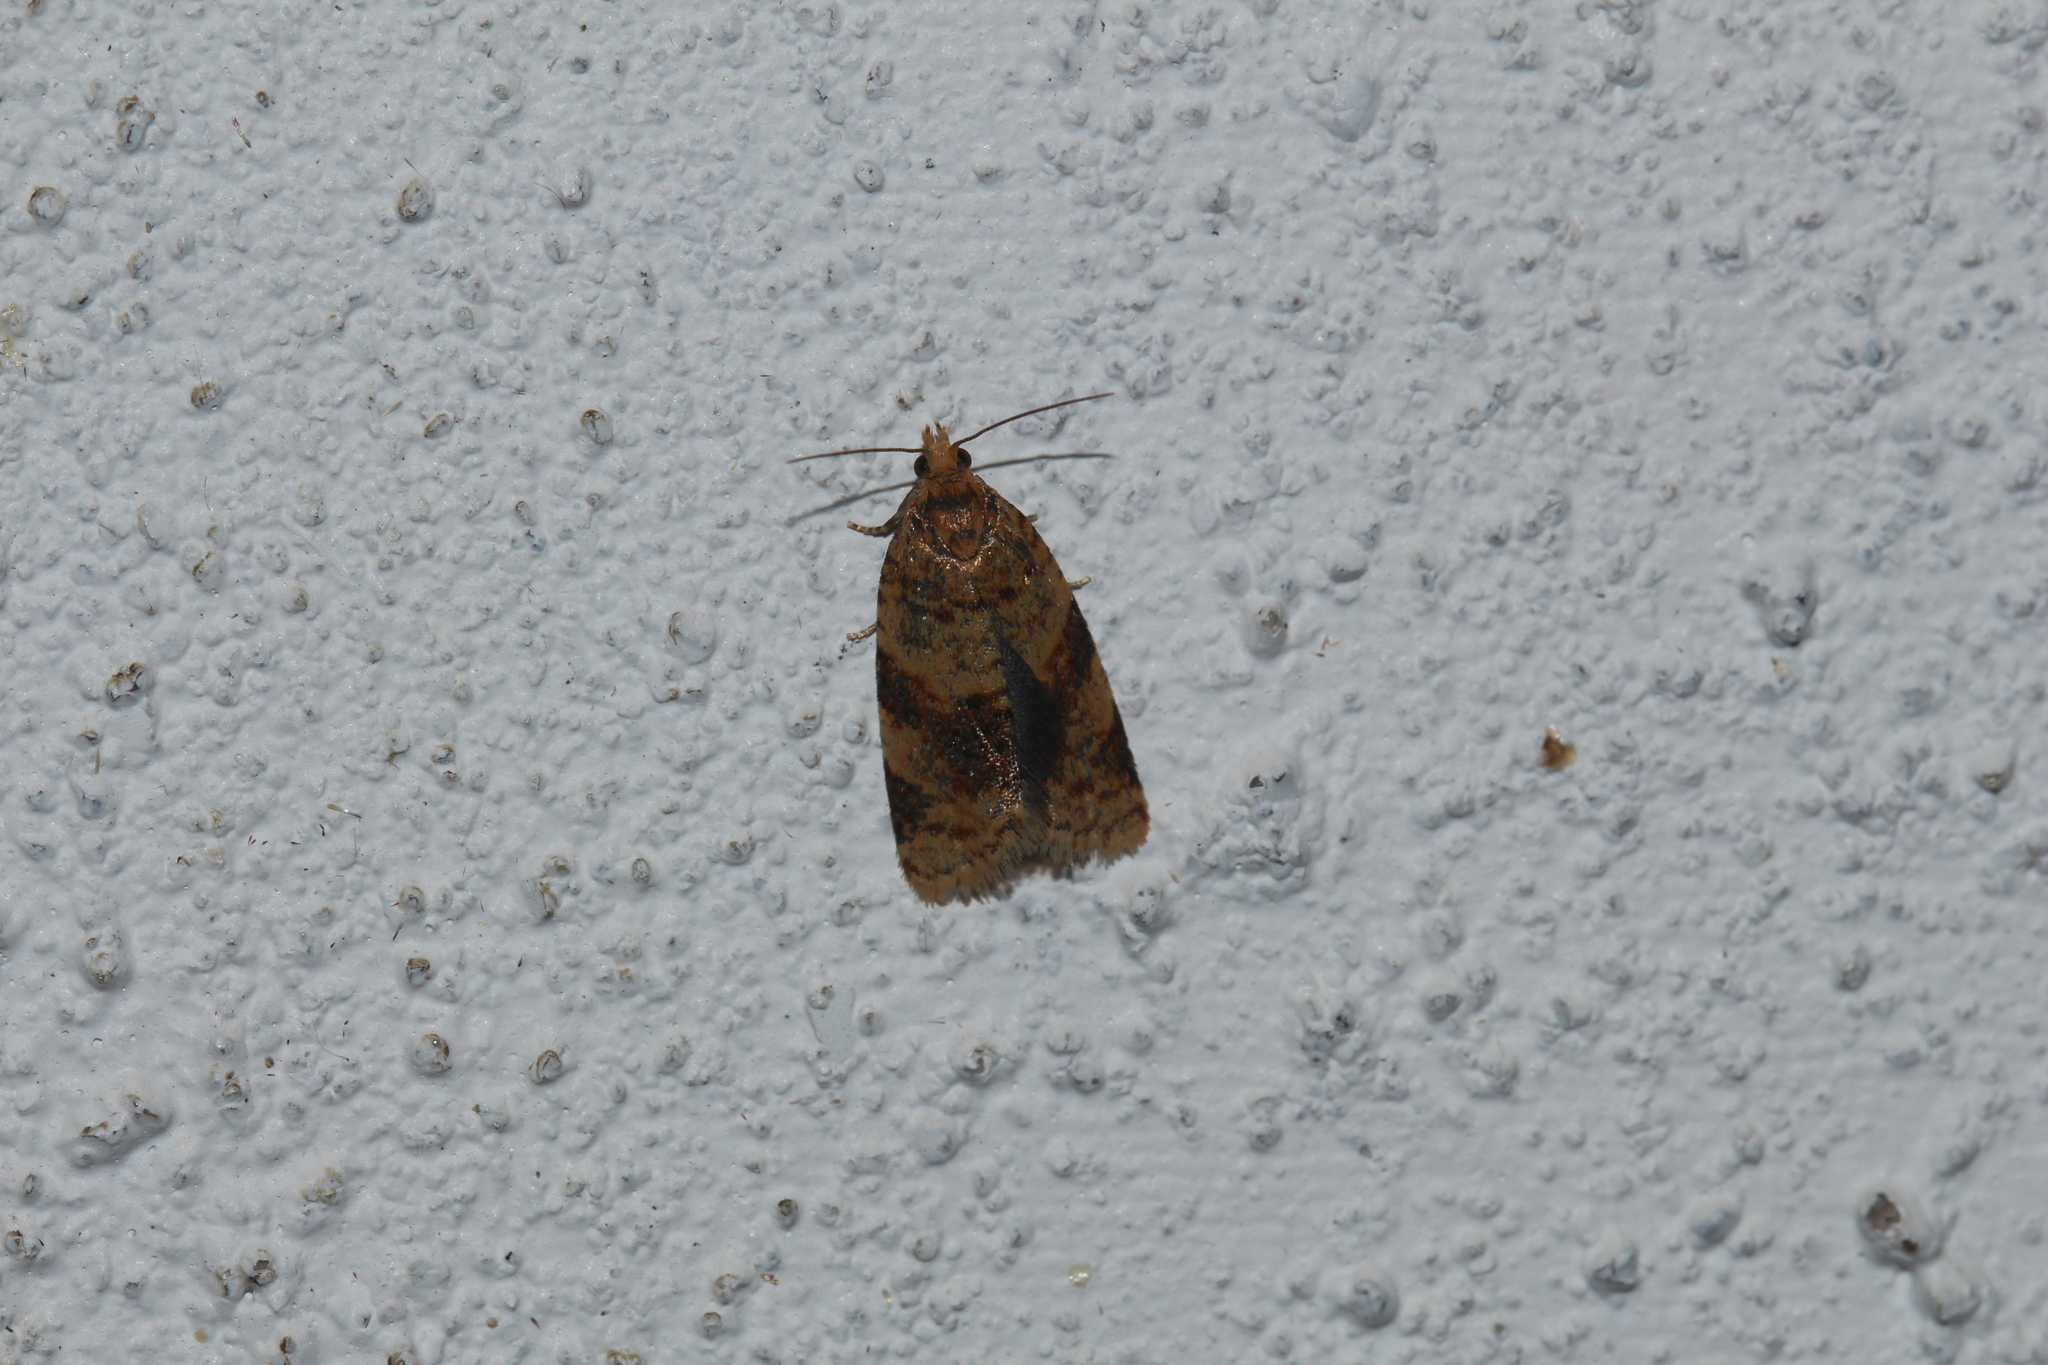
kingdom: Animalia
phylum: Arthropoda
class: Insecta
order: Lepidoptera
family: Tortricidae
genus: Epagoge
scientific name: Epagoge grotiana
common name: Brown-barred twist
